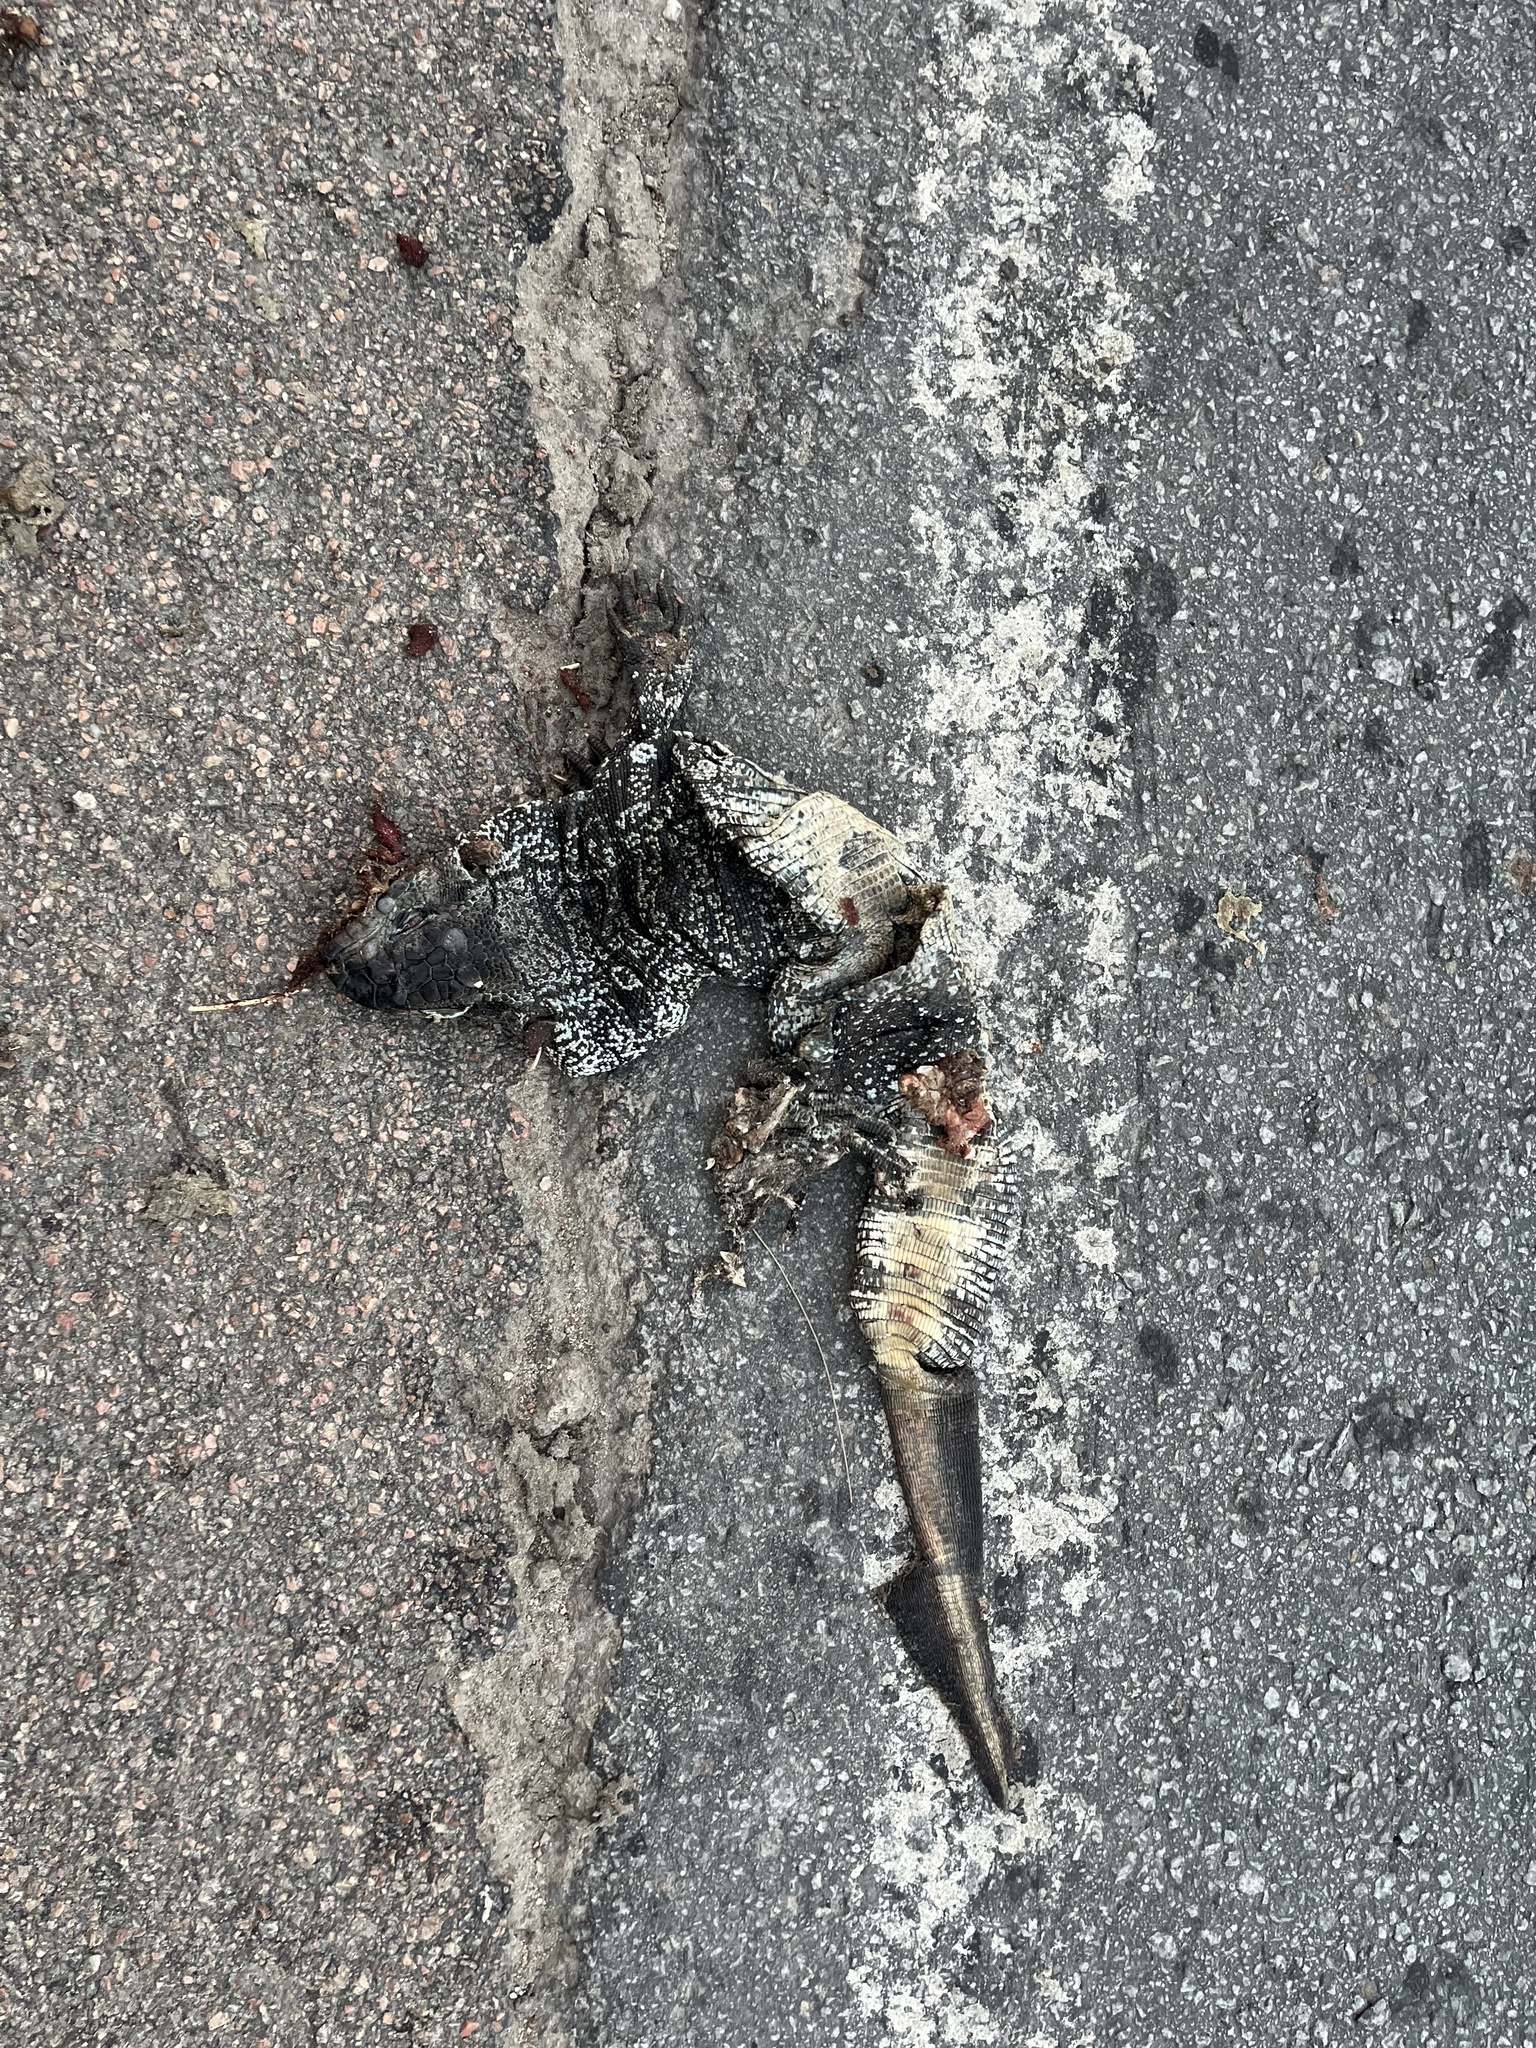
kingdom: Animalia
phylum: Chordata
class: Squamata
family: Teiidae
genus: Salvator
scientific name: Salvator merianae
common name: Argentine black and white tegu
